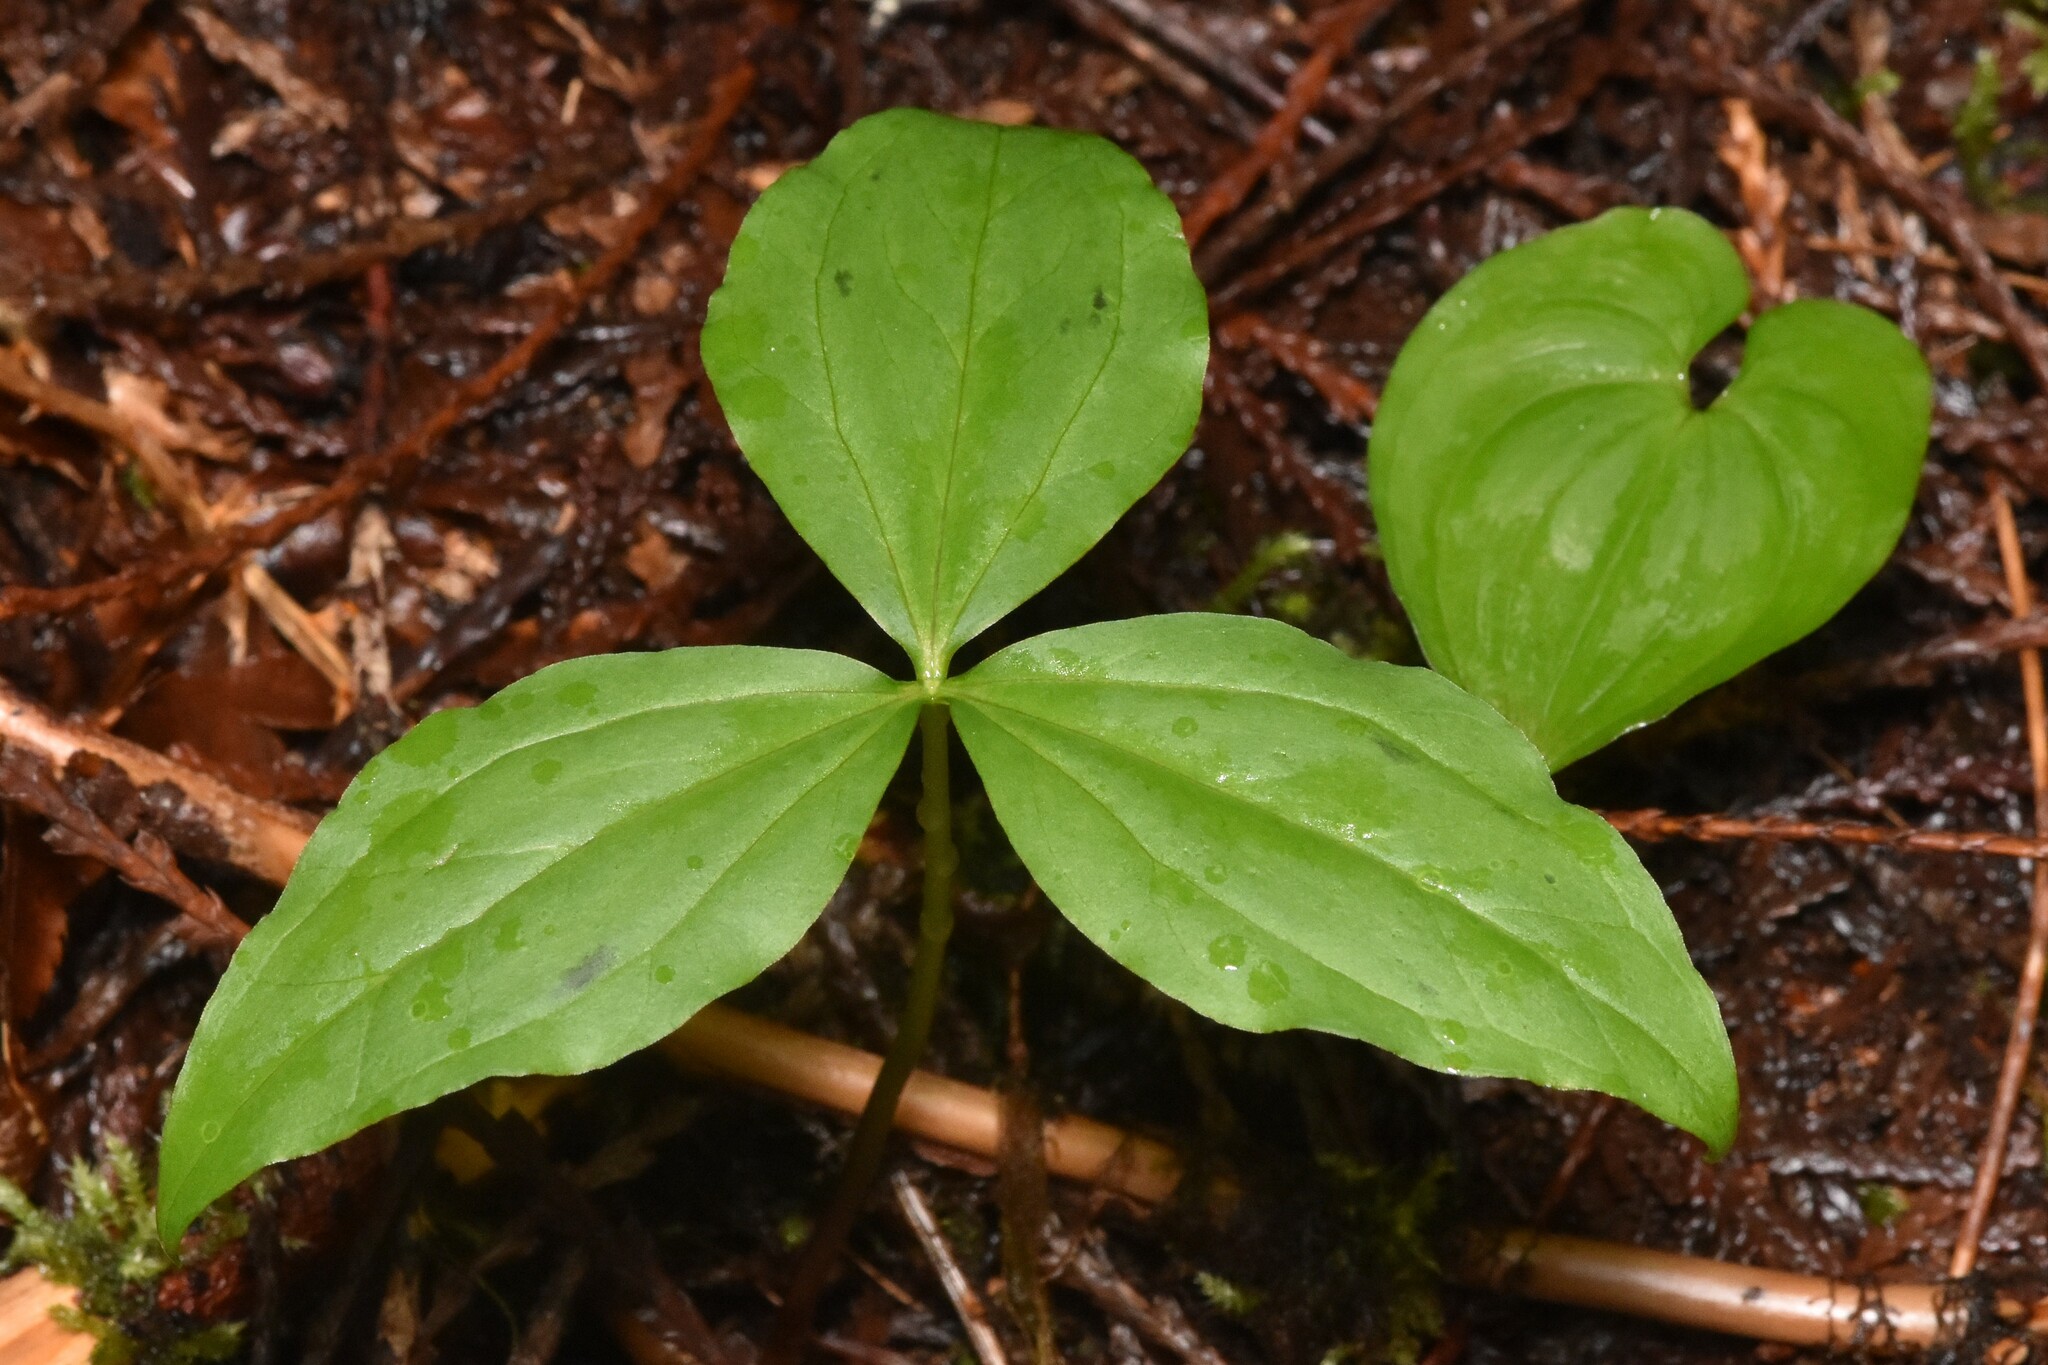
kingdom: Plantae
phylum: Tracheophyta
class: Liliopsida
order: Liliales
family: Melanthiaceae
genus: Trillium
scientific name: Trillium ovatum
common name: Pacific trillium
